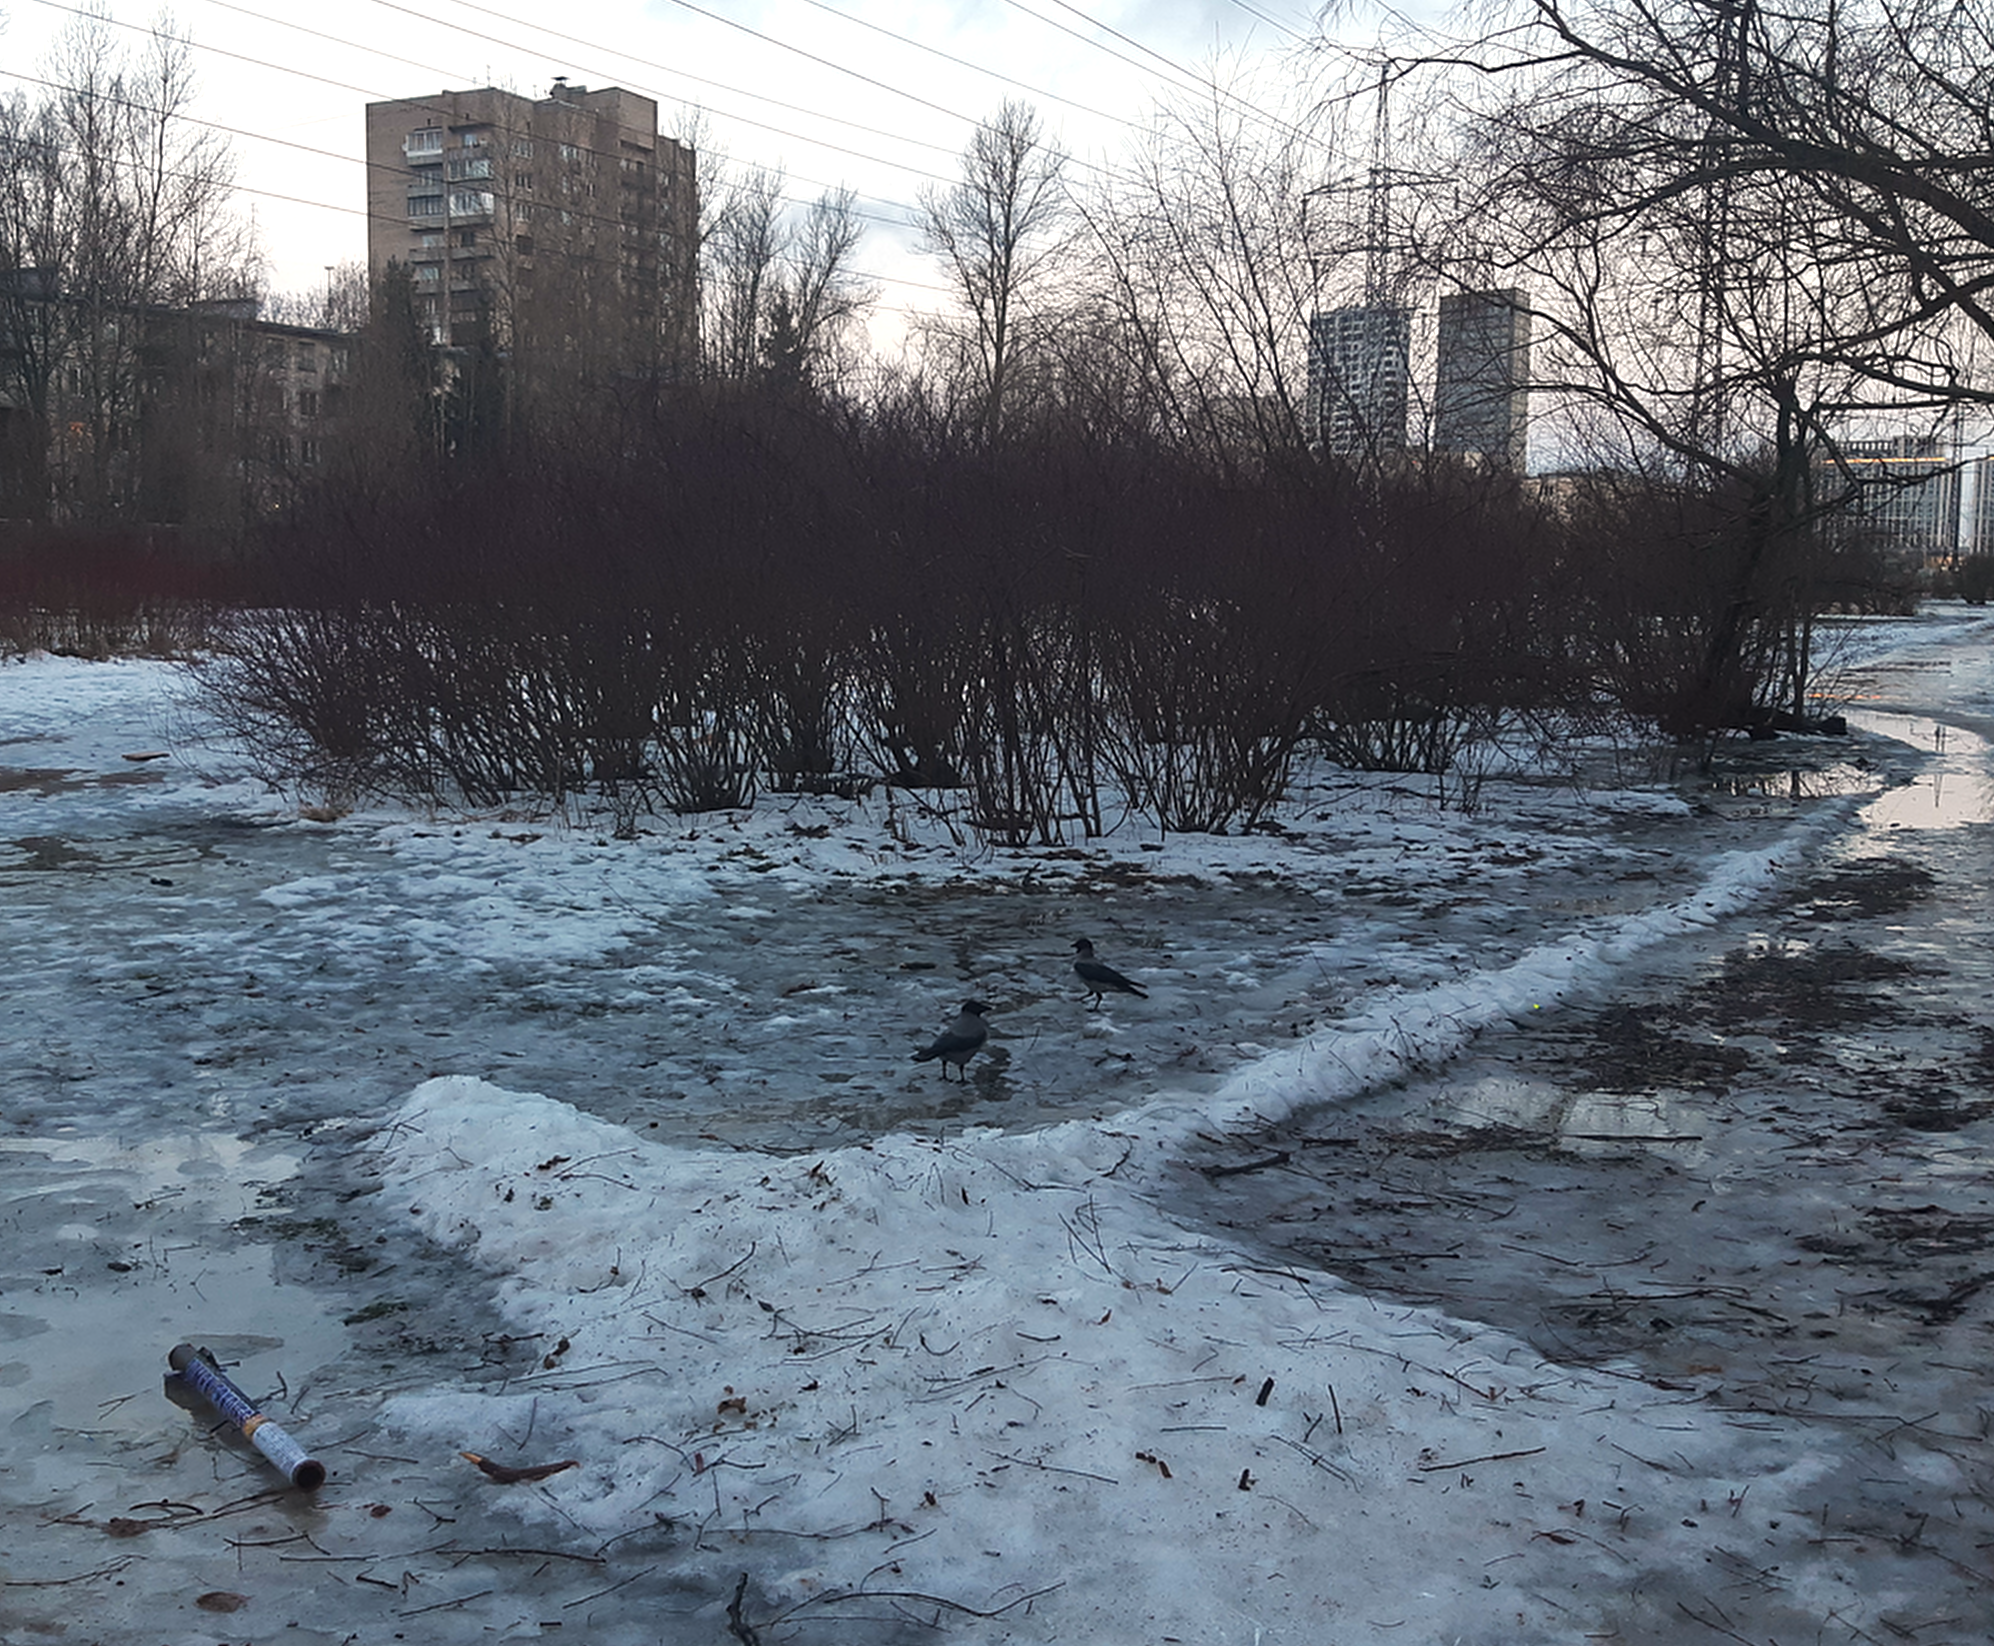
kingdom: Animalia
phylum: Chordata
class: Aves
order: Passeriformes
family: Corvidae
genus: Corvus
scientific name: Corvus cornix
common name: Hooded crow
